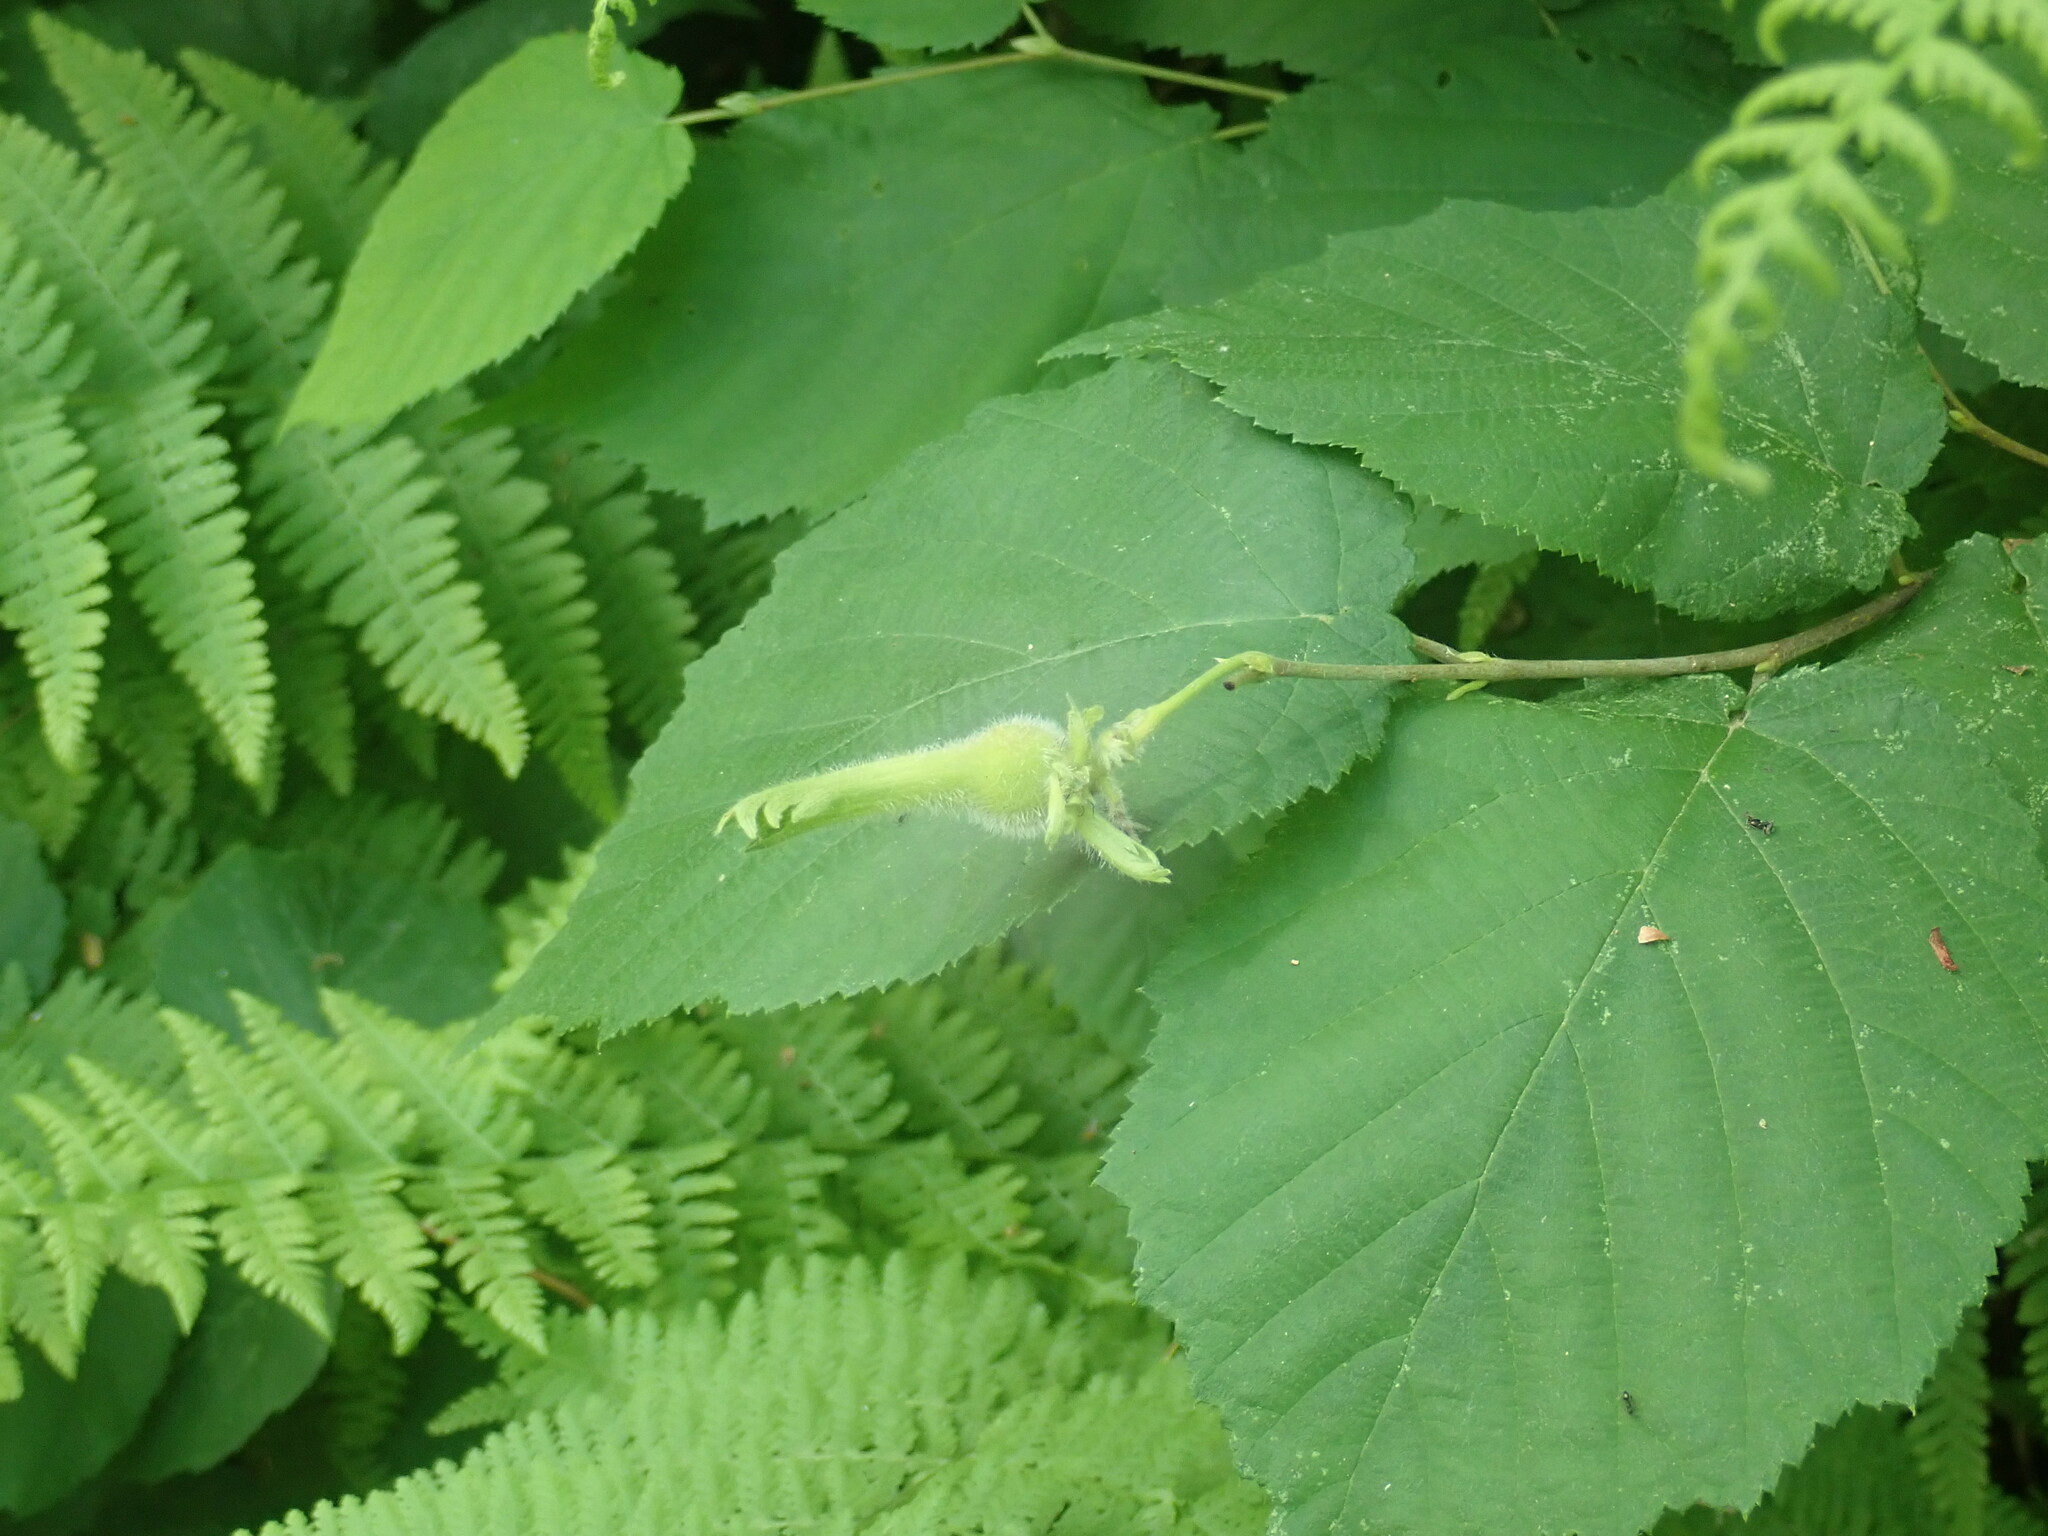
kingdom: Plantae
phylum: Tracheophyta
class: Magnoliopsida
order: Fagales
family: Betulaceae
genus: Corylus
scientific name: Corylus cornuta
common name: Beaked hazel
